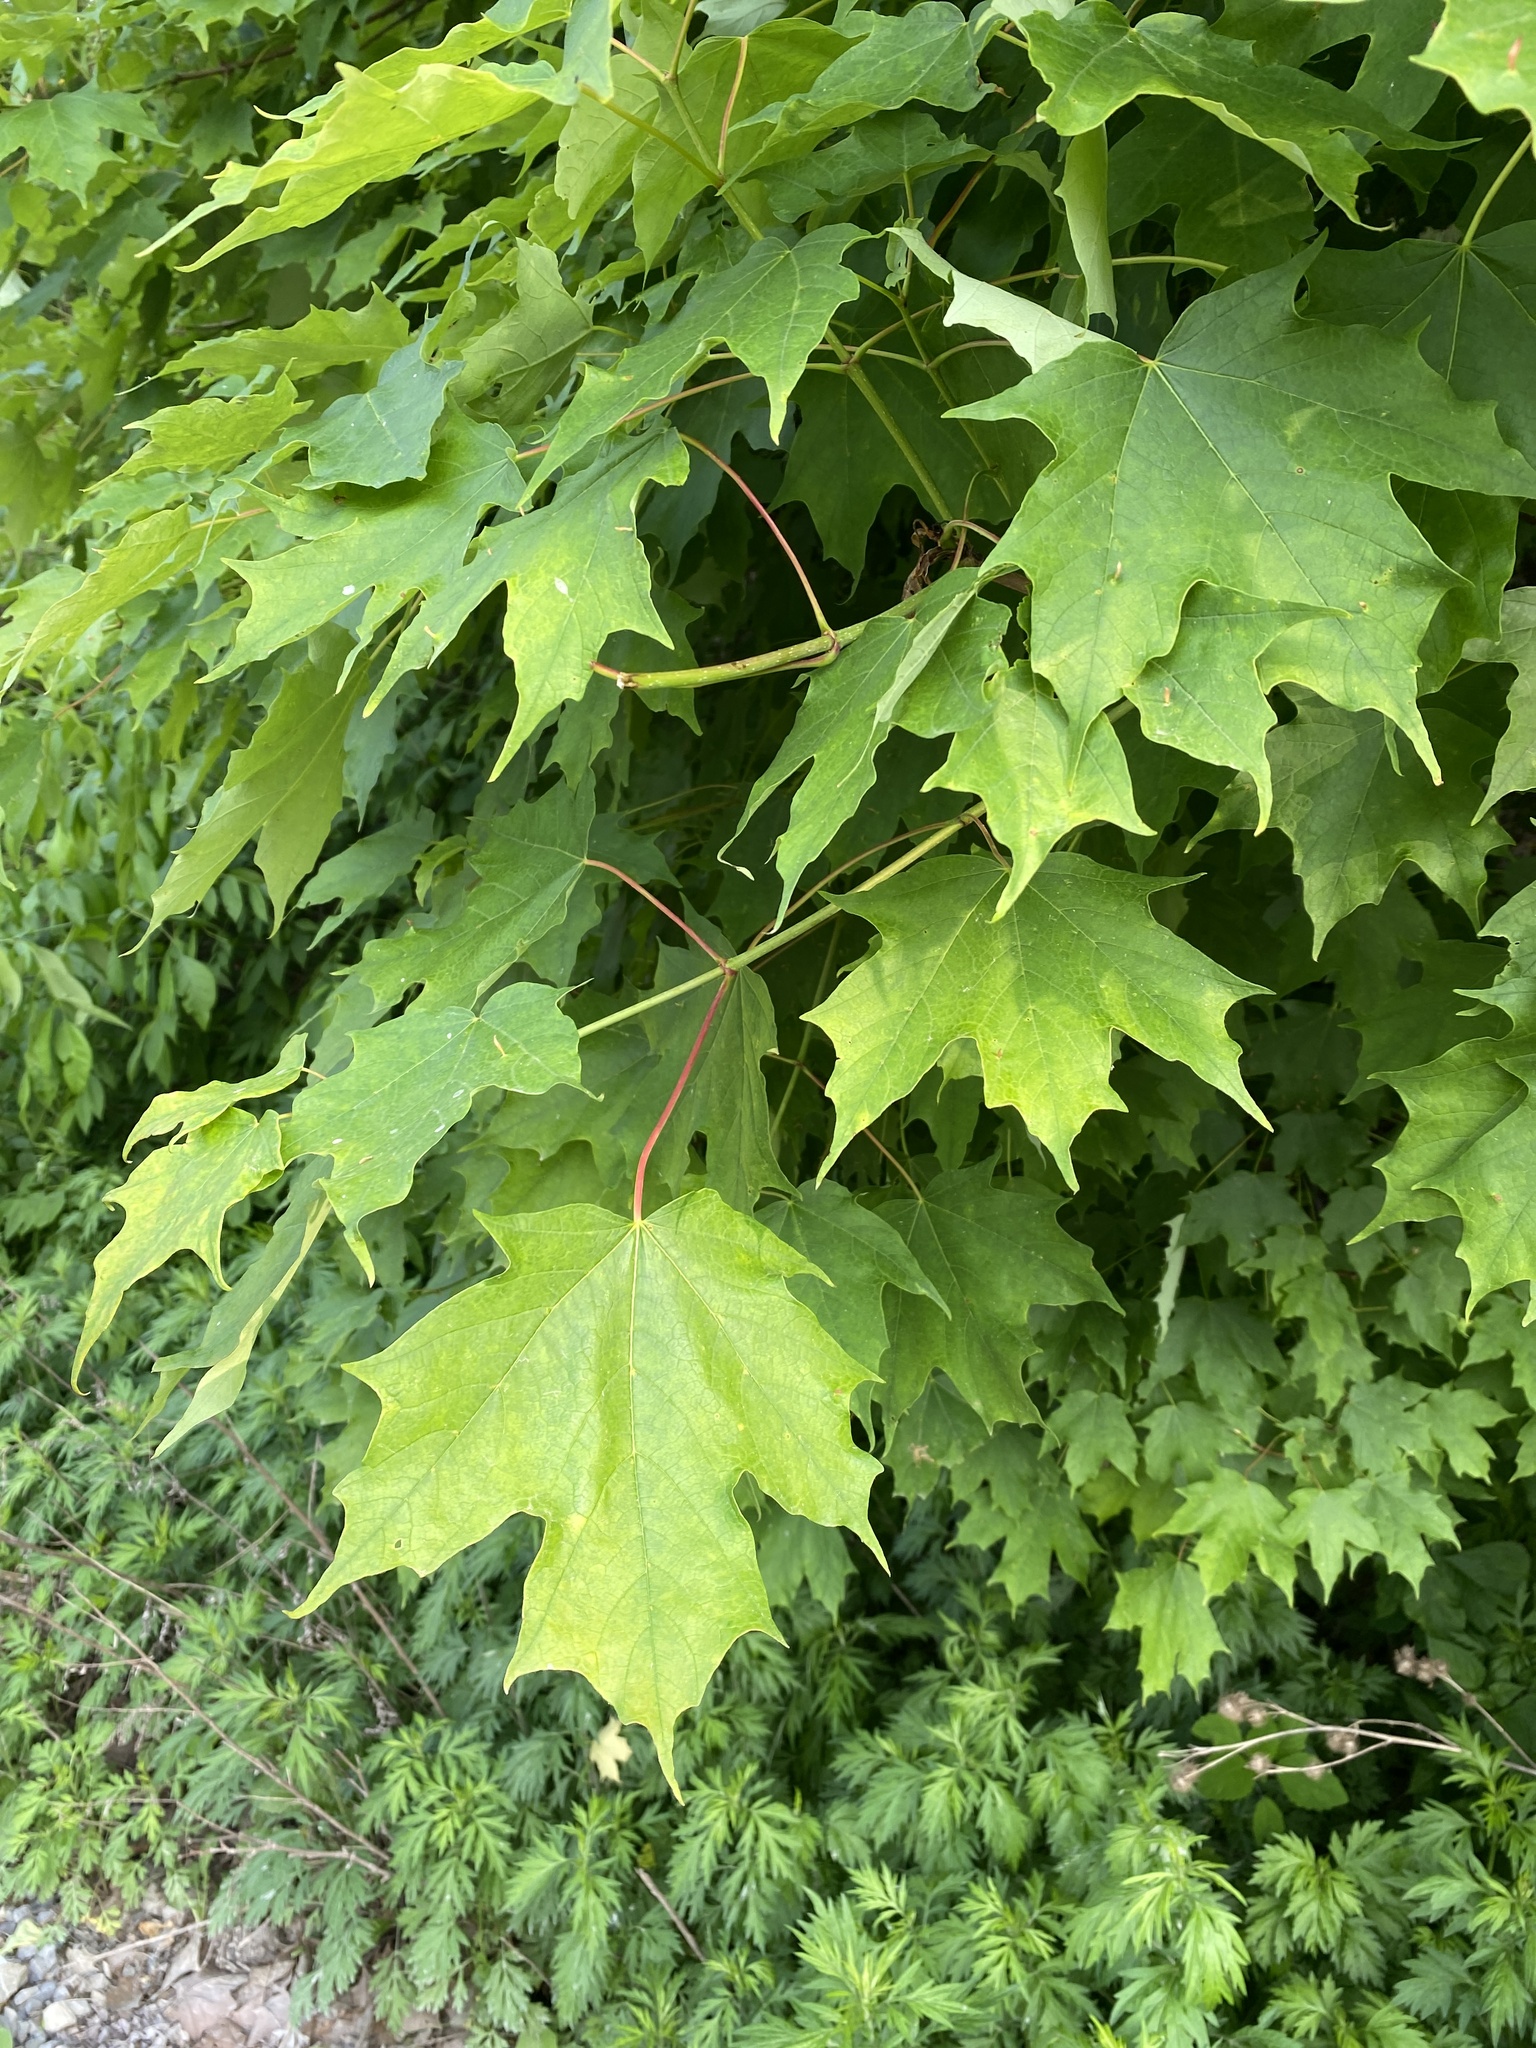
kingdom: Plantae
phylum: Tracheophyta
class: Magnoliopsida
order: Sapindales
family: Sapindaceae
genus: Acer
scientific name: Acer saccharum
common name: Sugar maple
